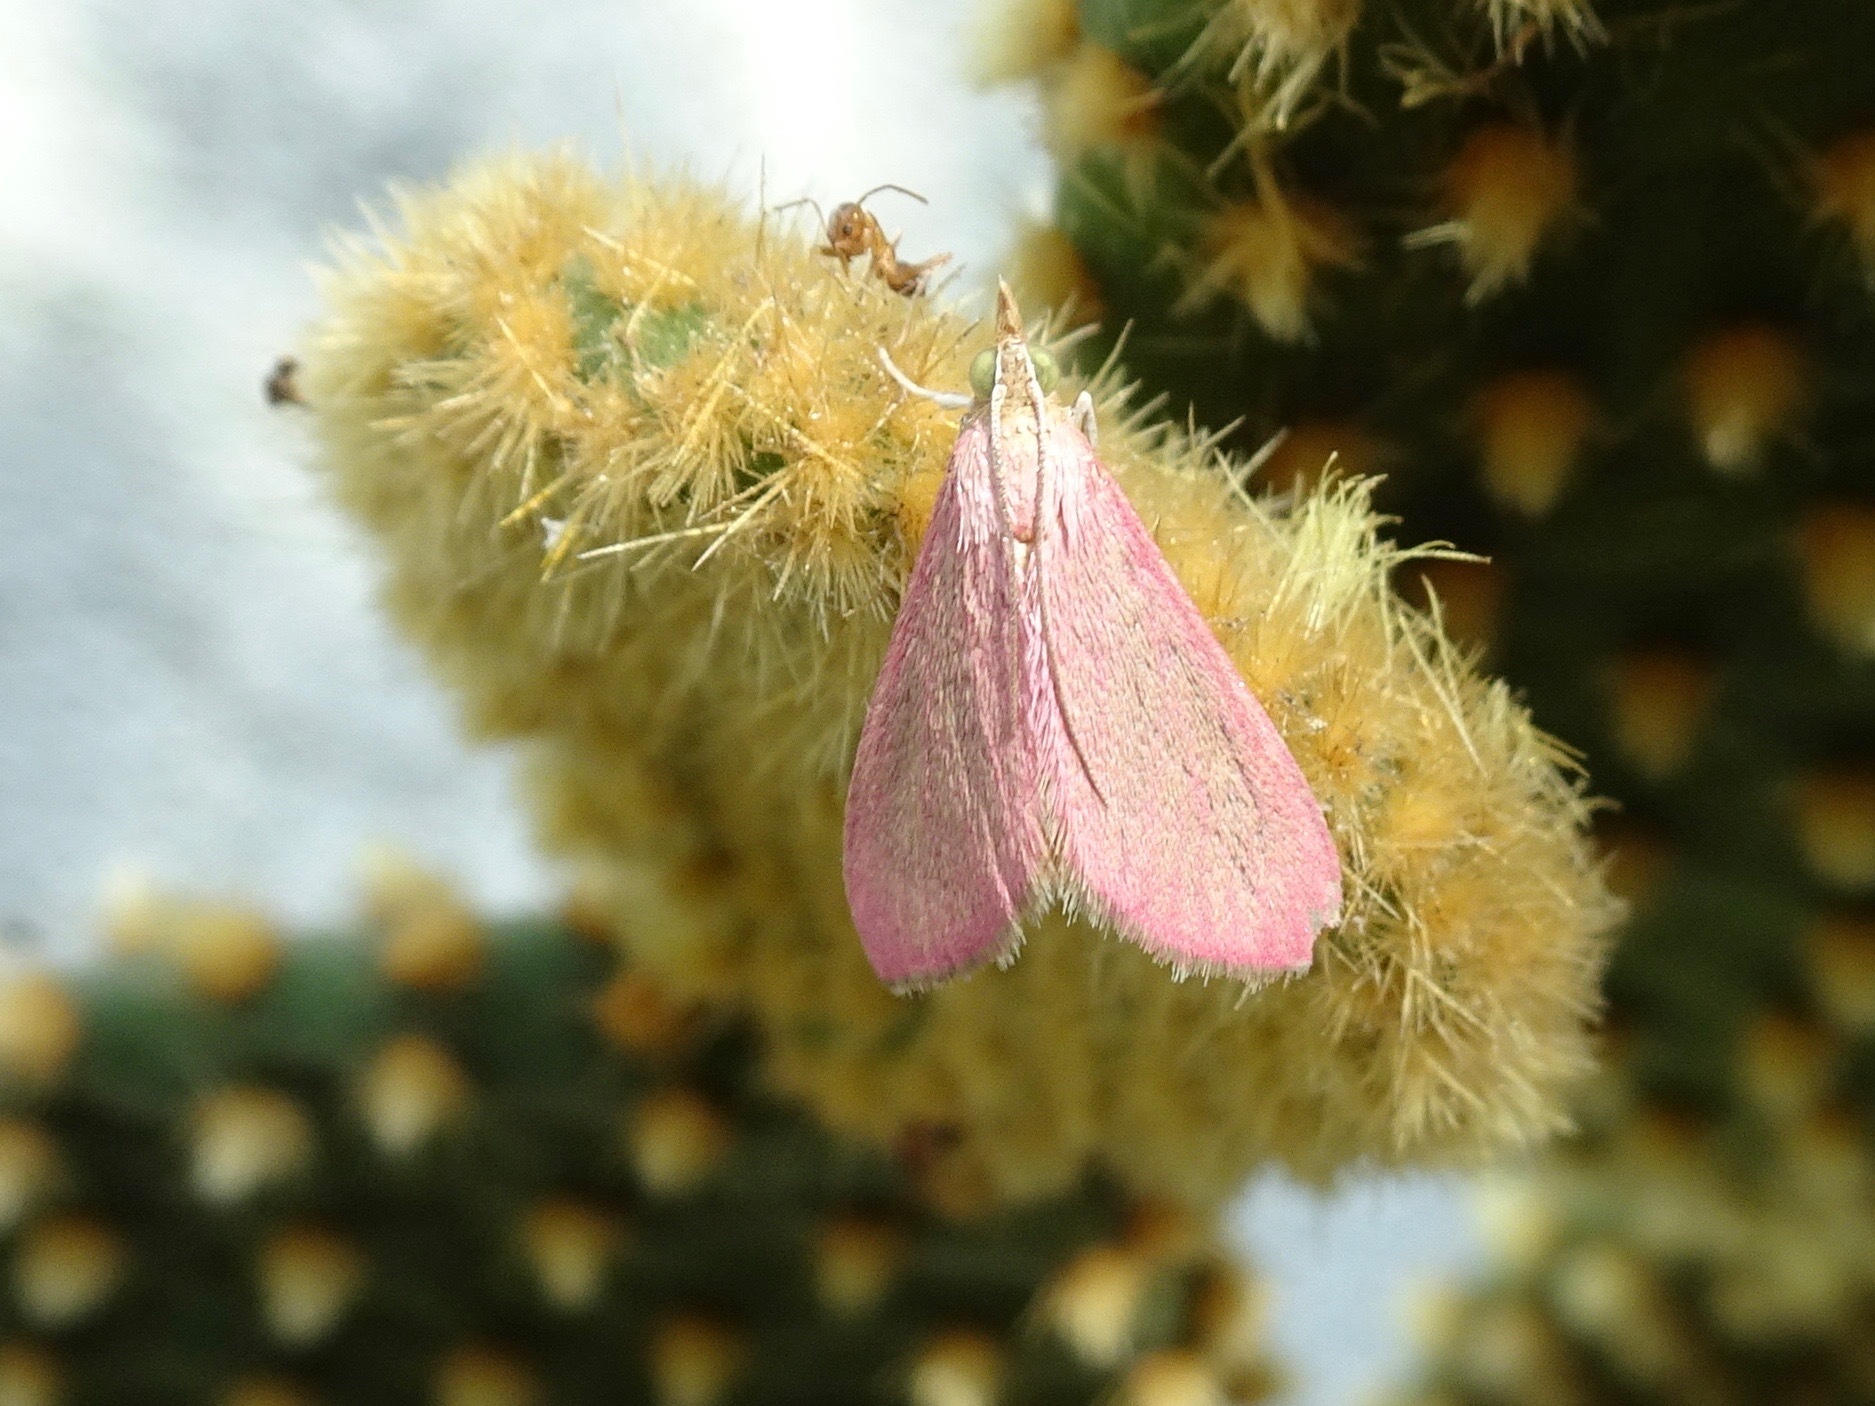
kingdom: Animalia
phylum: Arthropoda
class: Insecta
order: Lepidoptera
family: Crambidae
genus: Pyrausta
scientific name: Pyrausta inornatalis
